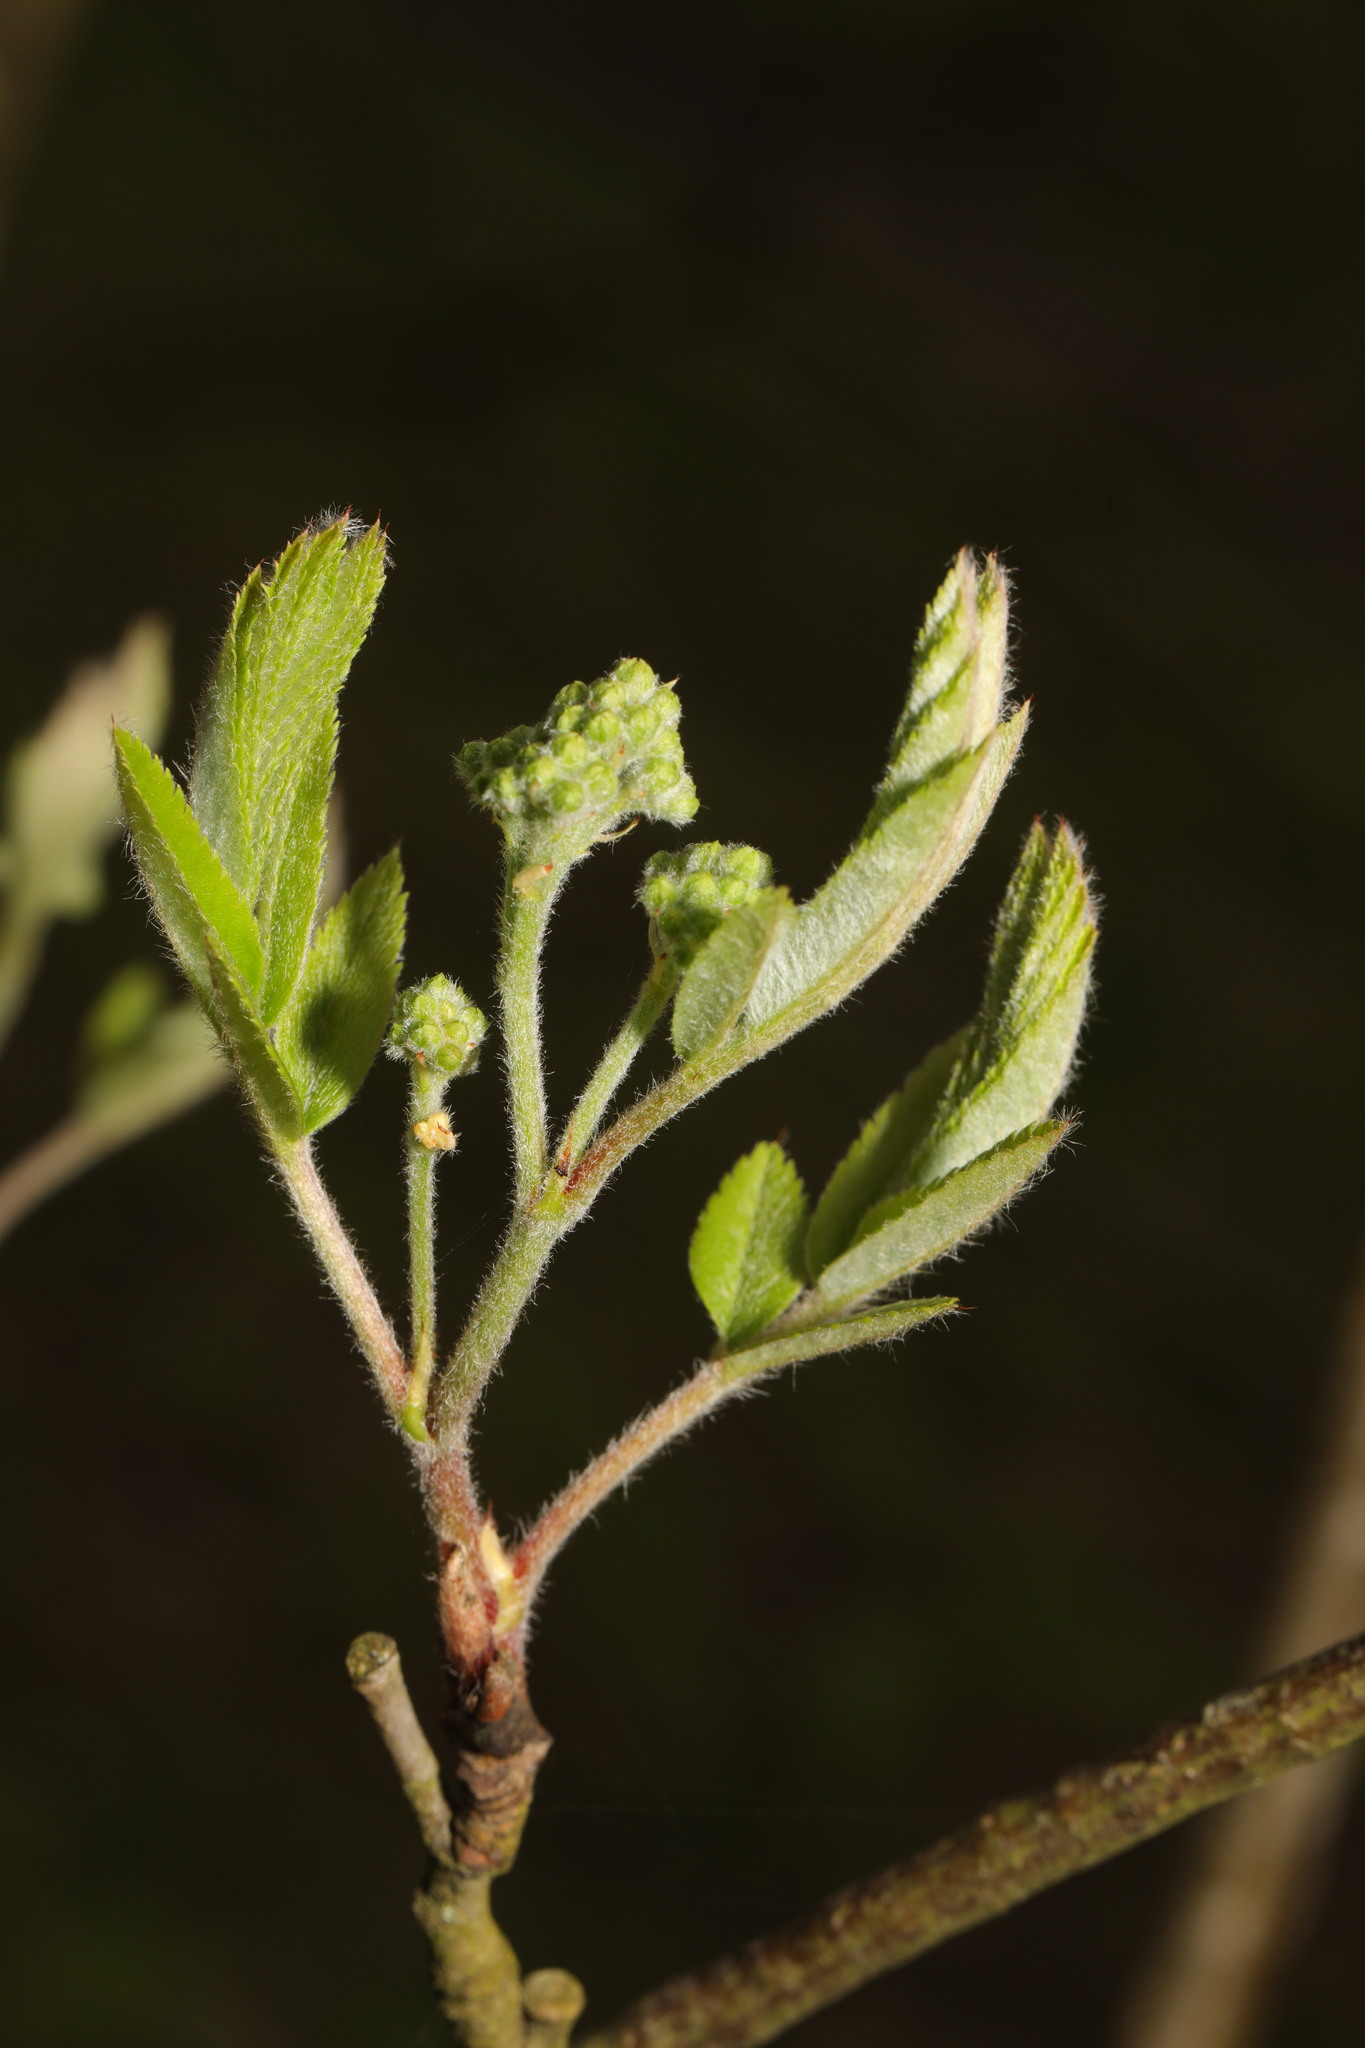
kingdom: Plantae
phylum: Tracheophyta
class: Magnoliopsida
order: Rosales
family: Rosaceae
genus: Sorbus
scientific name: Sorbus aucuparia
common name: Rowan
